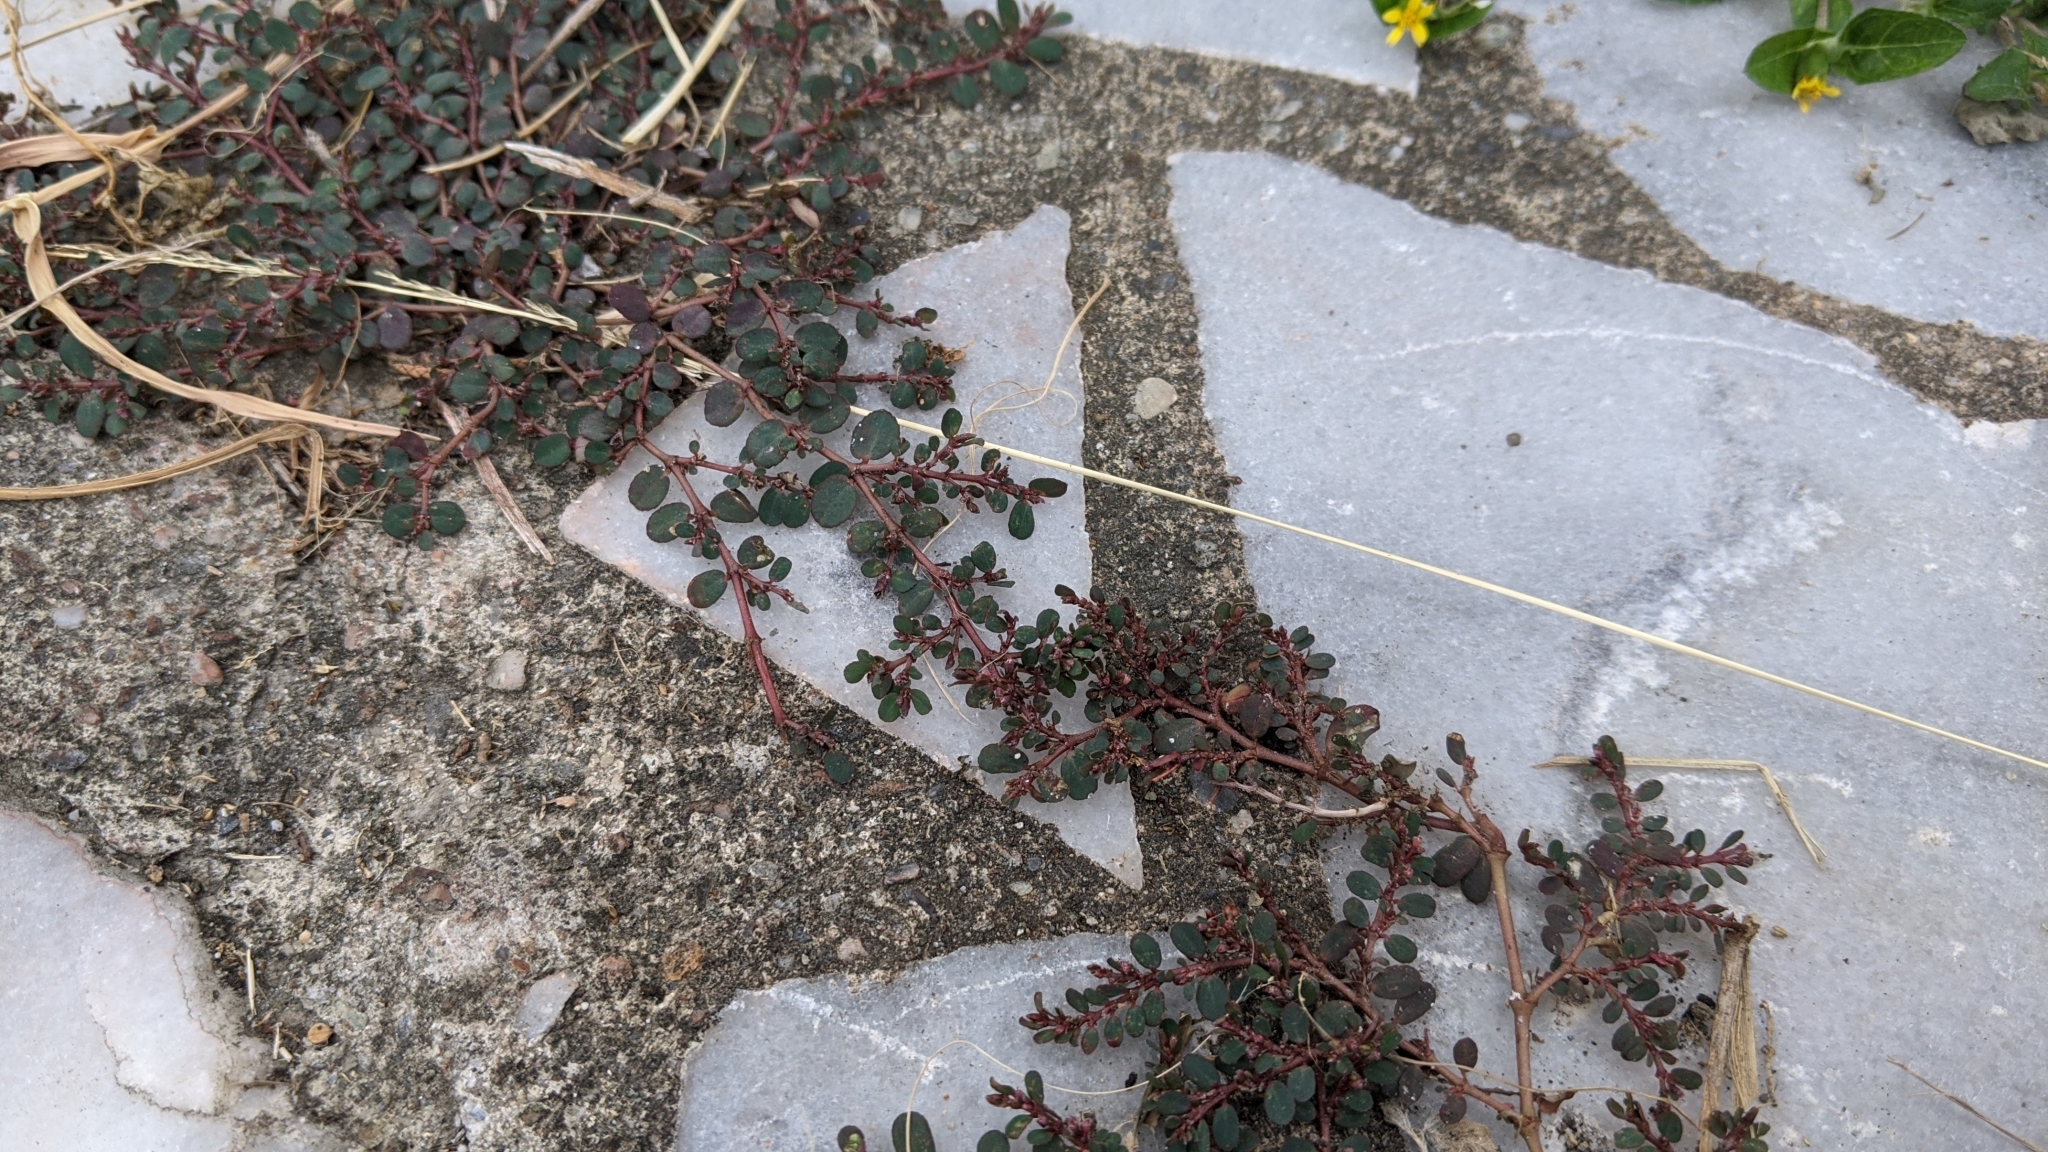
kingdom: Plantae
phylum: Tracheophyta
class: Magnoliopsida
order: Malpighiales
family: Euphorbiaceae
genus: Euphorbia
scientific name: Euphorbia prostrata
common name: Prostrate sandmat
